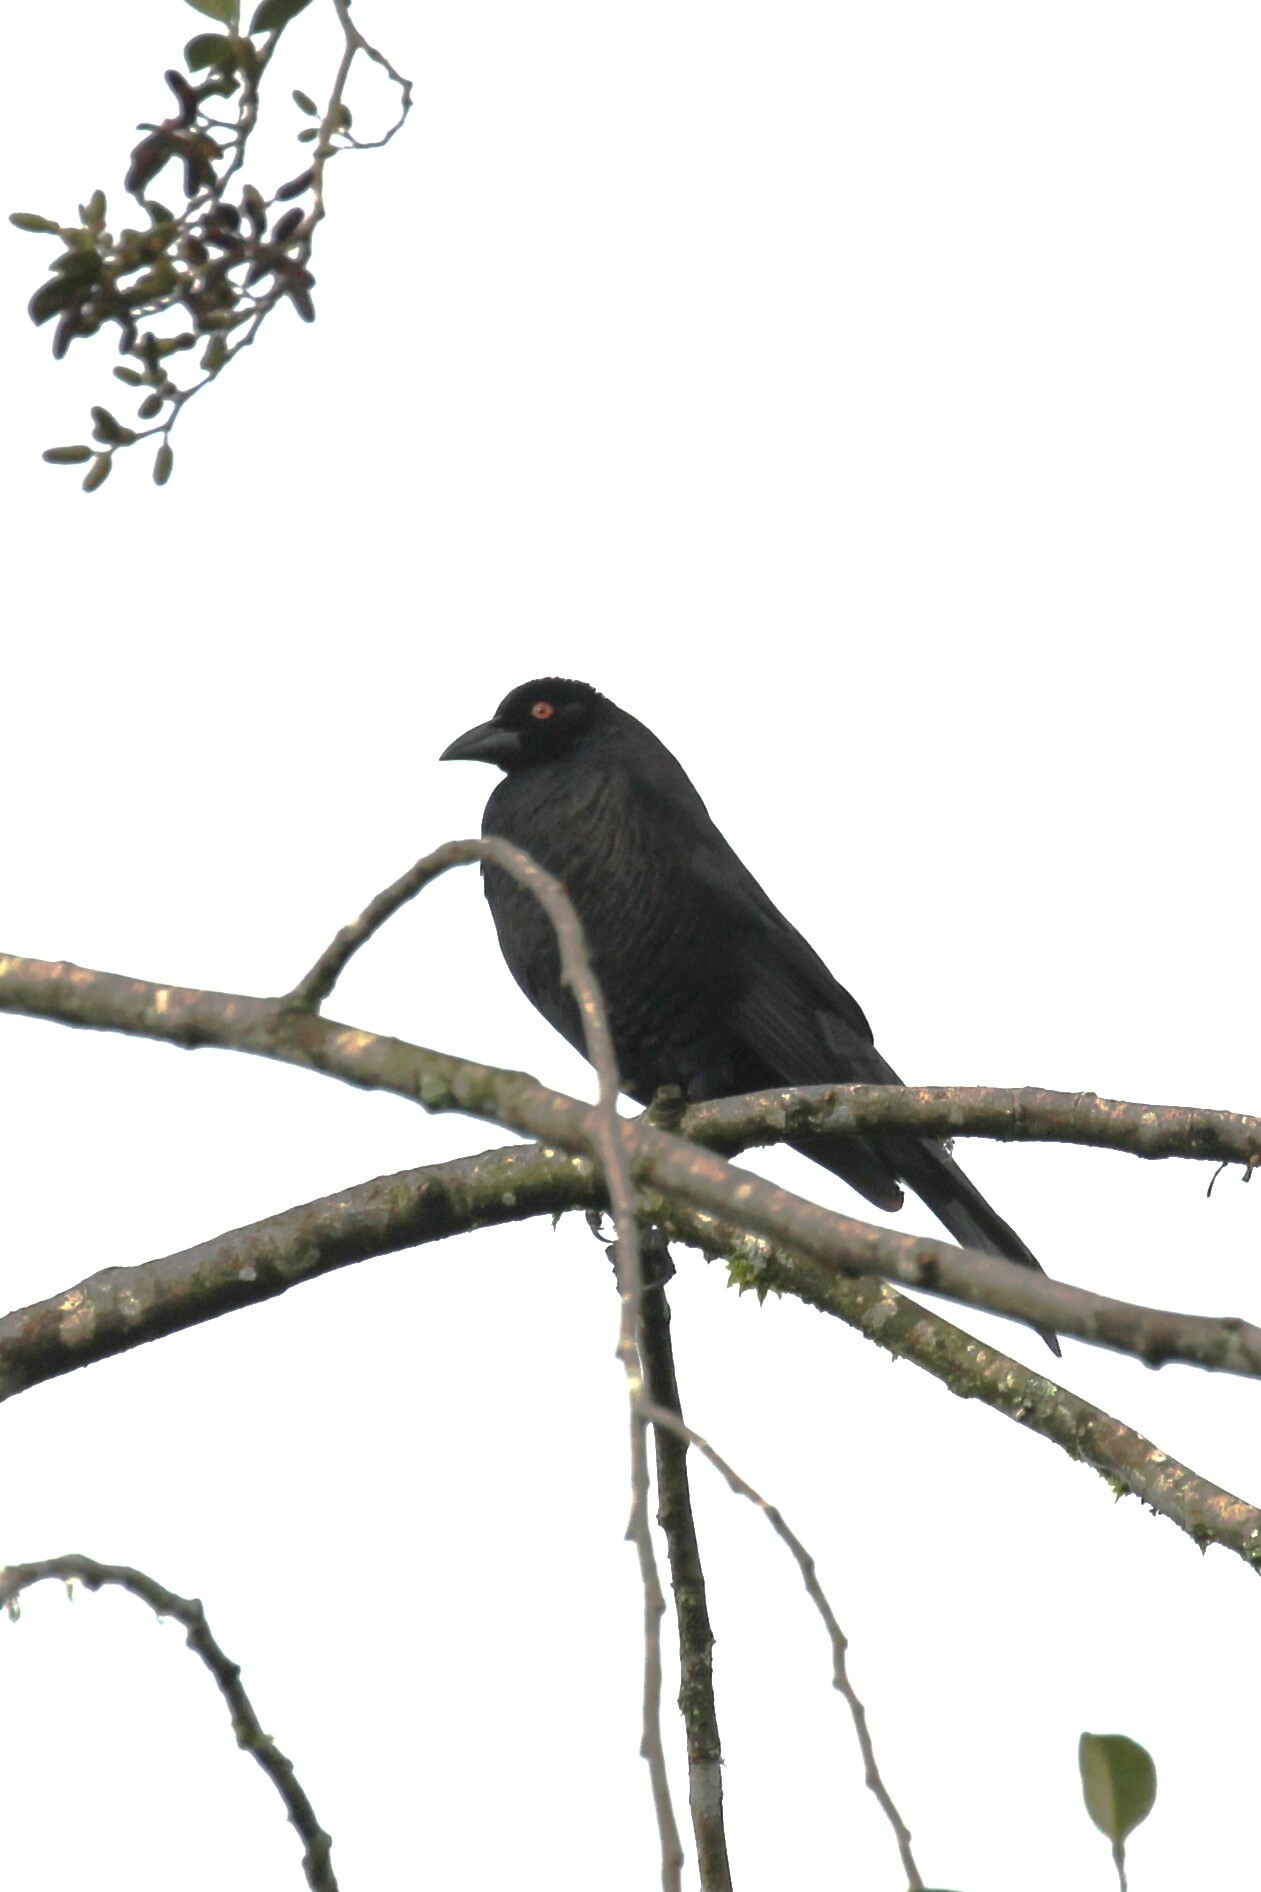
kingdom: Animalia
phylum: Chordata
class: Aves
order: Passeriformes
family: Icteridae
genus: Molothrus
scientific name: Molothrus oryzivorus
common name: Giant cowbird
